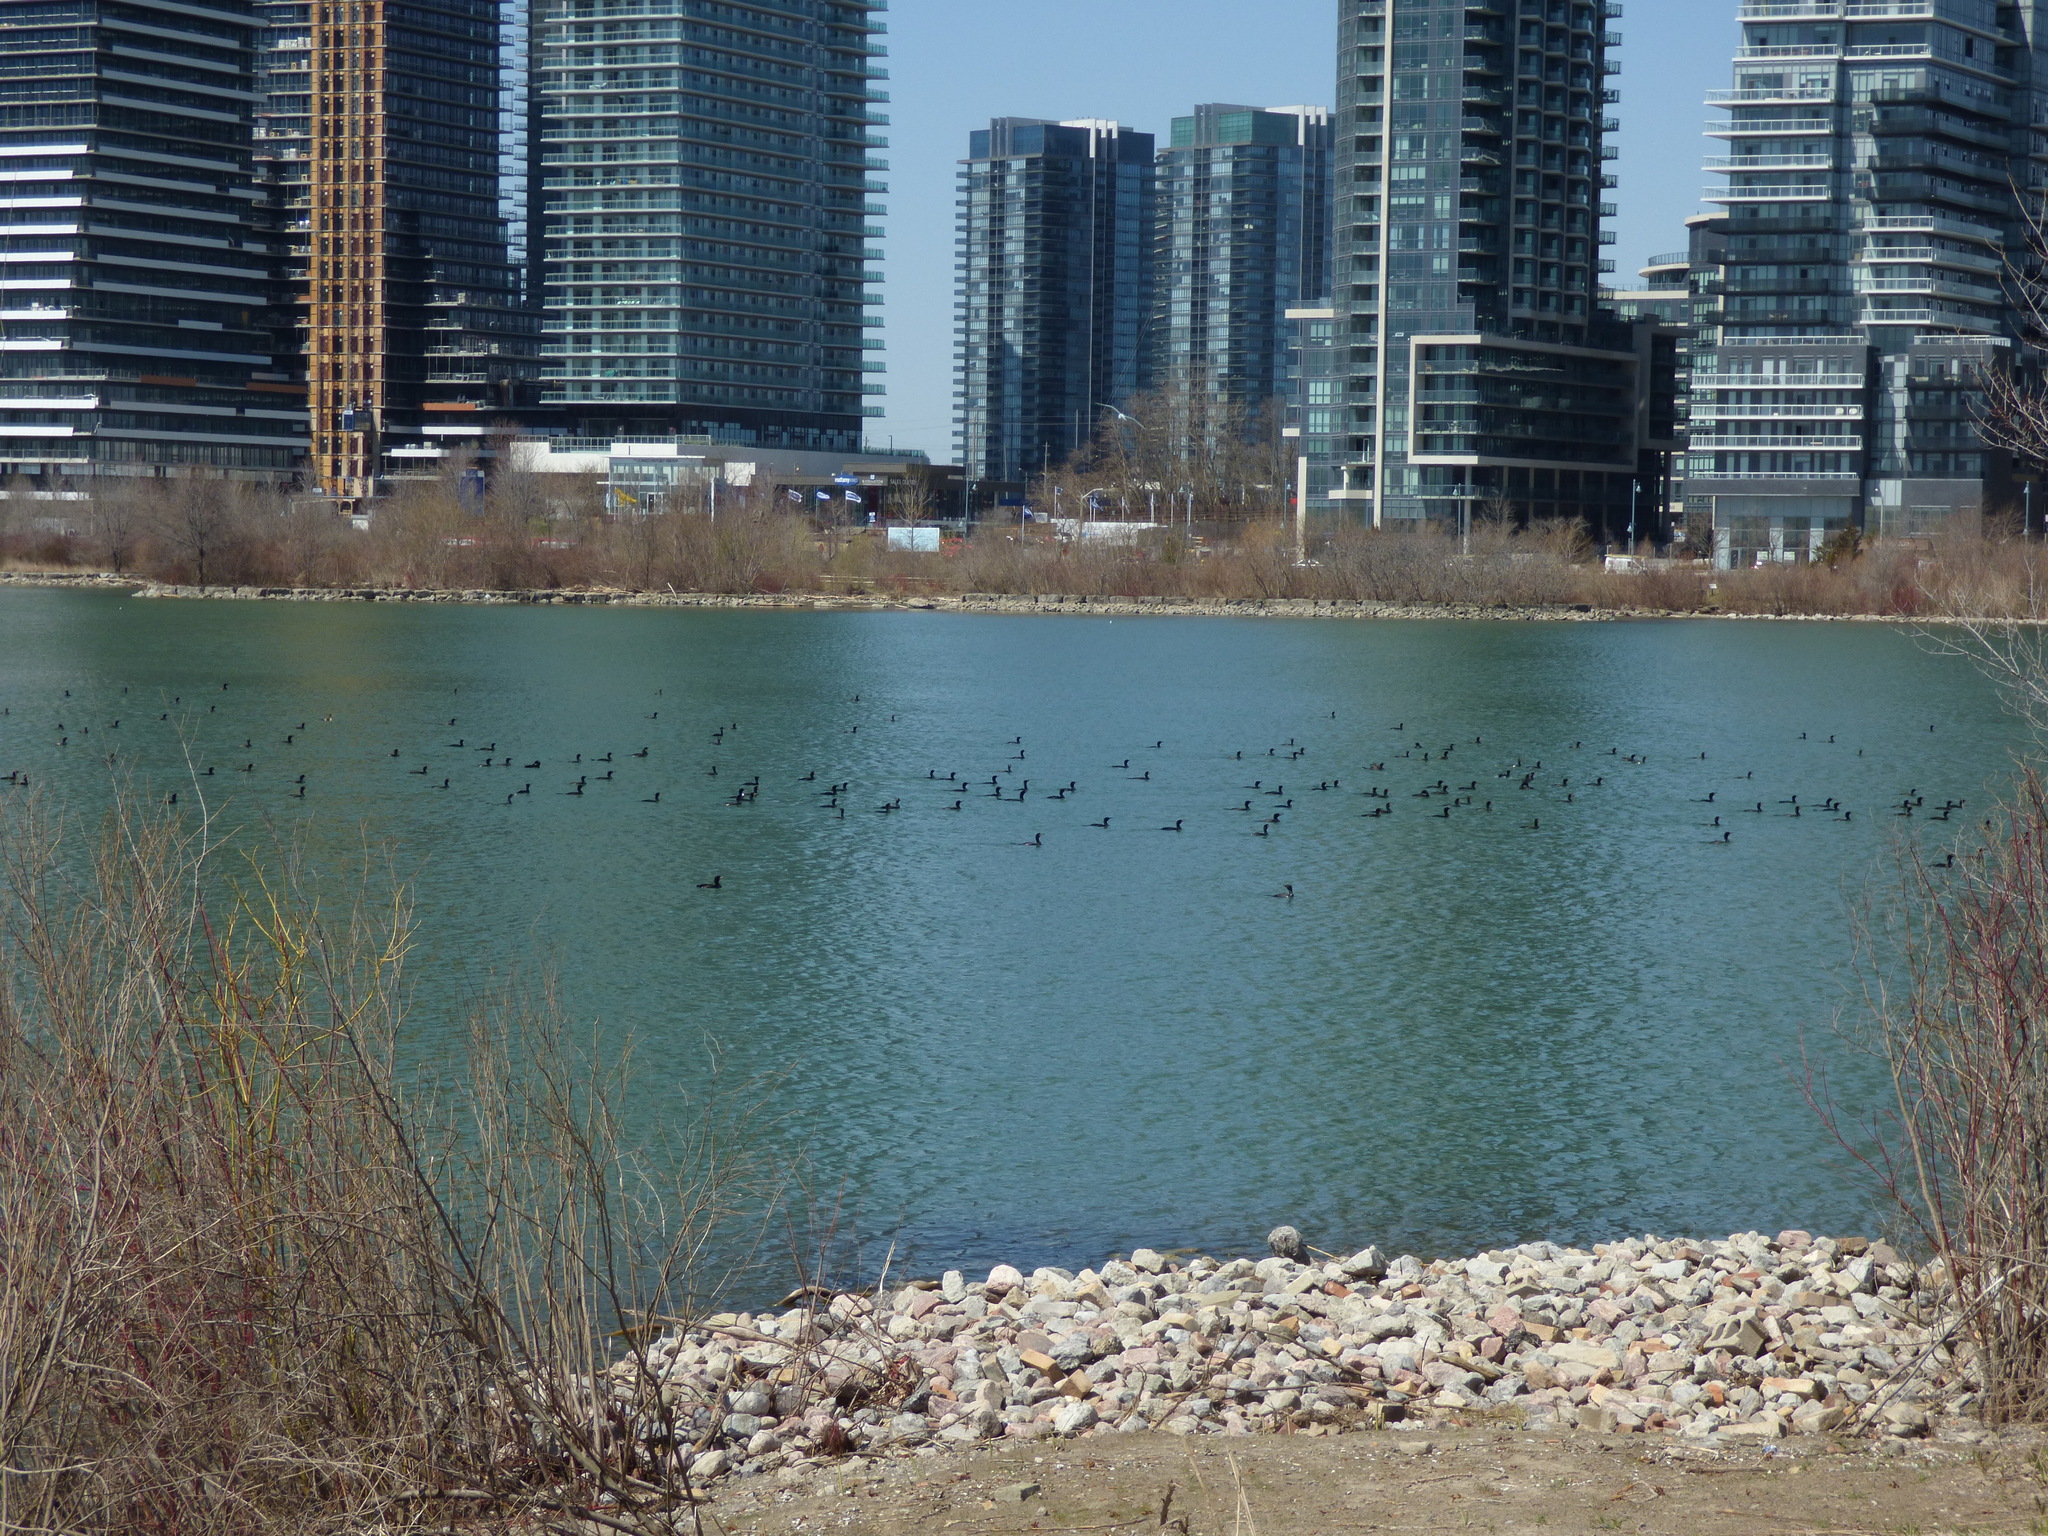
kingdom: Animalia
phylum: Chordata
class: Aves
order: Suliformes
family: Phalacrocoracidae
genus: Phalacrocorax
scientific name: Phalacrocorax auritus
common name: Double-crested cormorant
